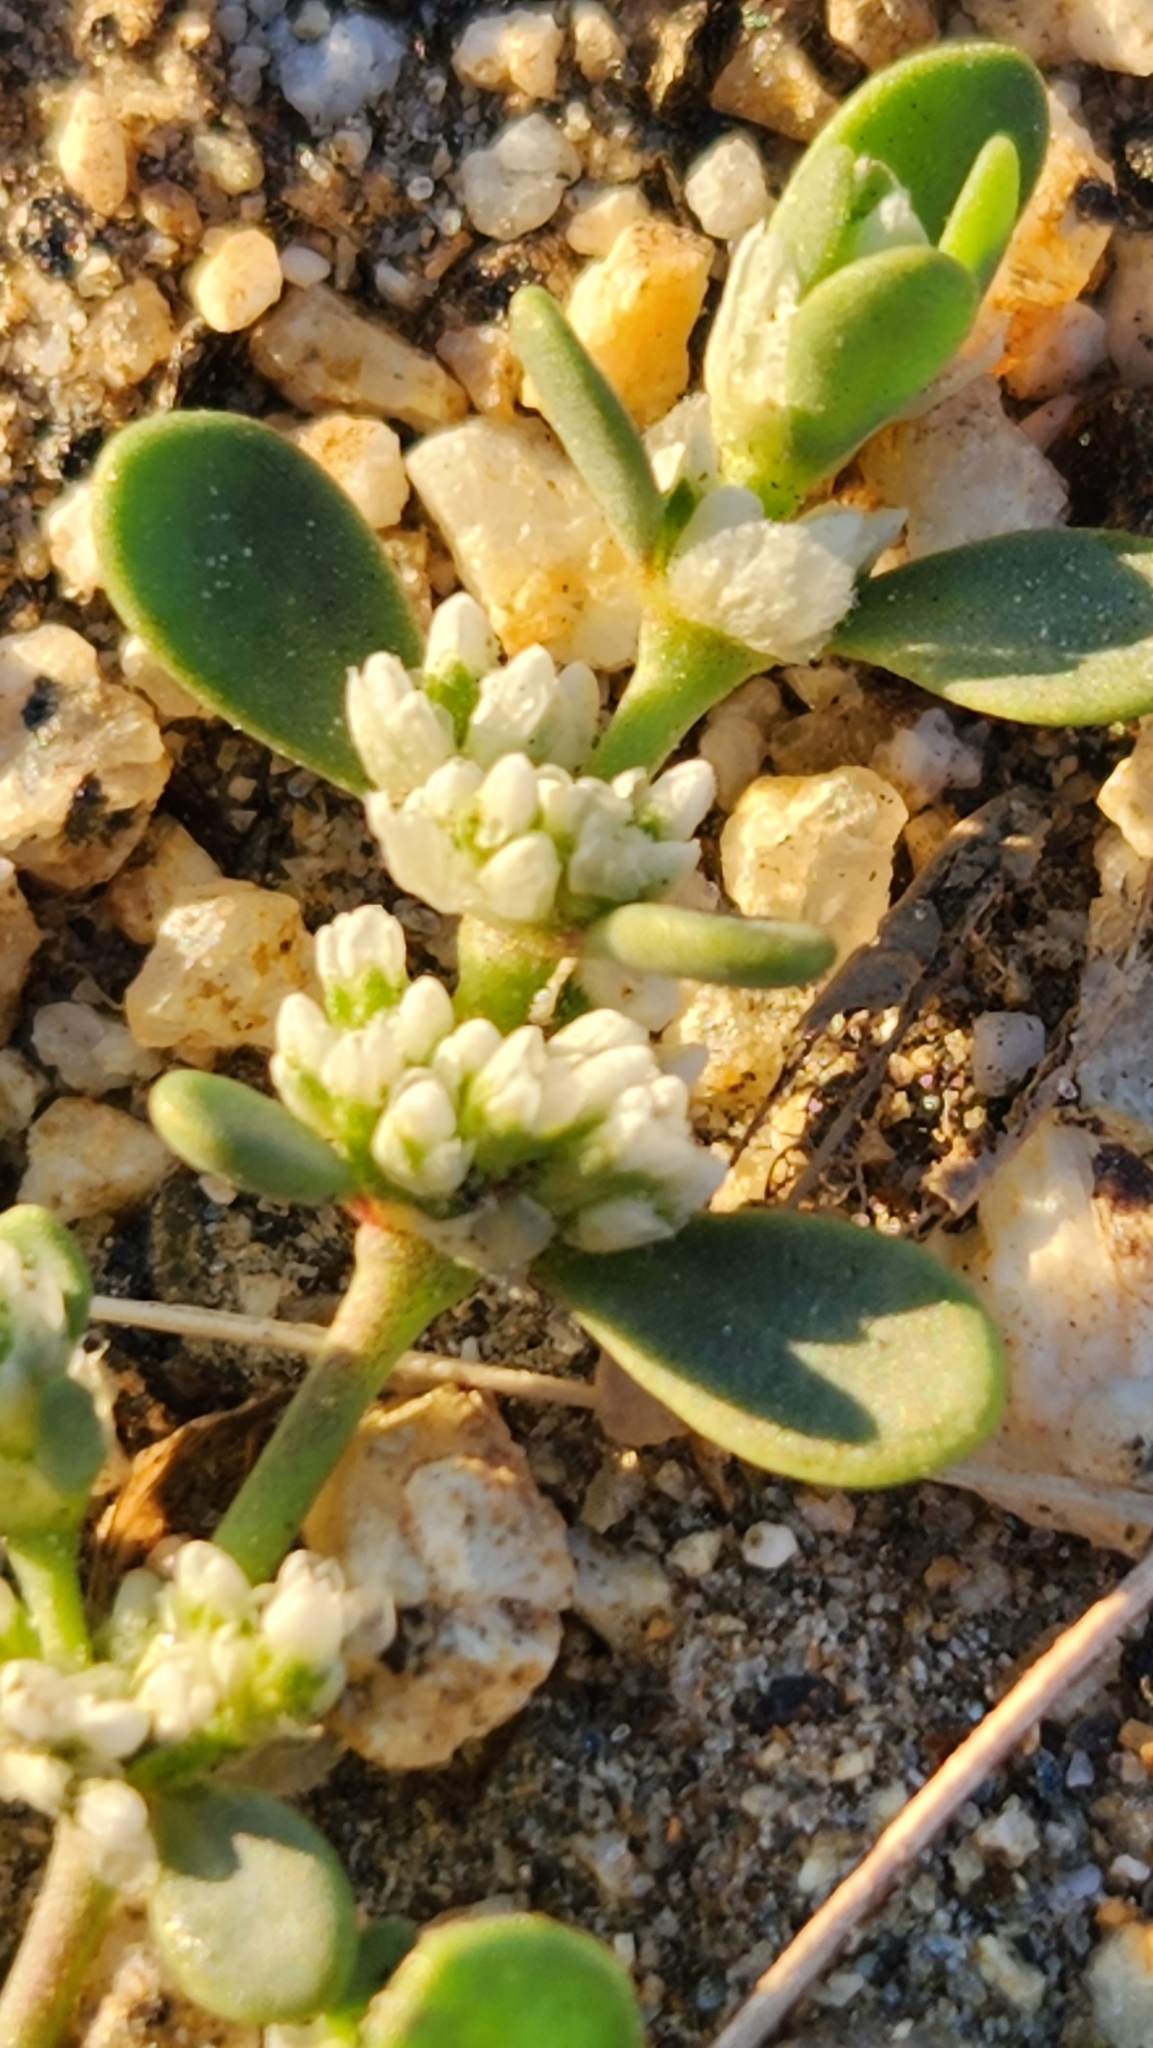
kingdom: Plantae
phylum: Tracheophyta
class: Magnoliopsida
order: Caryophyllales
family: Caryophyllaceae
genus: Achyronychia
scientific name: Achyronychia cooperi
